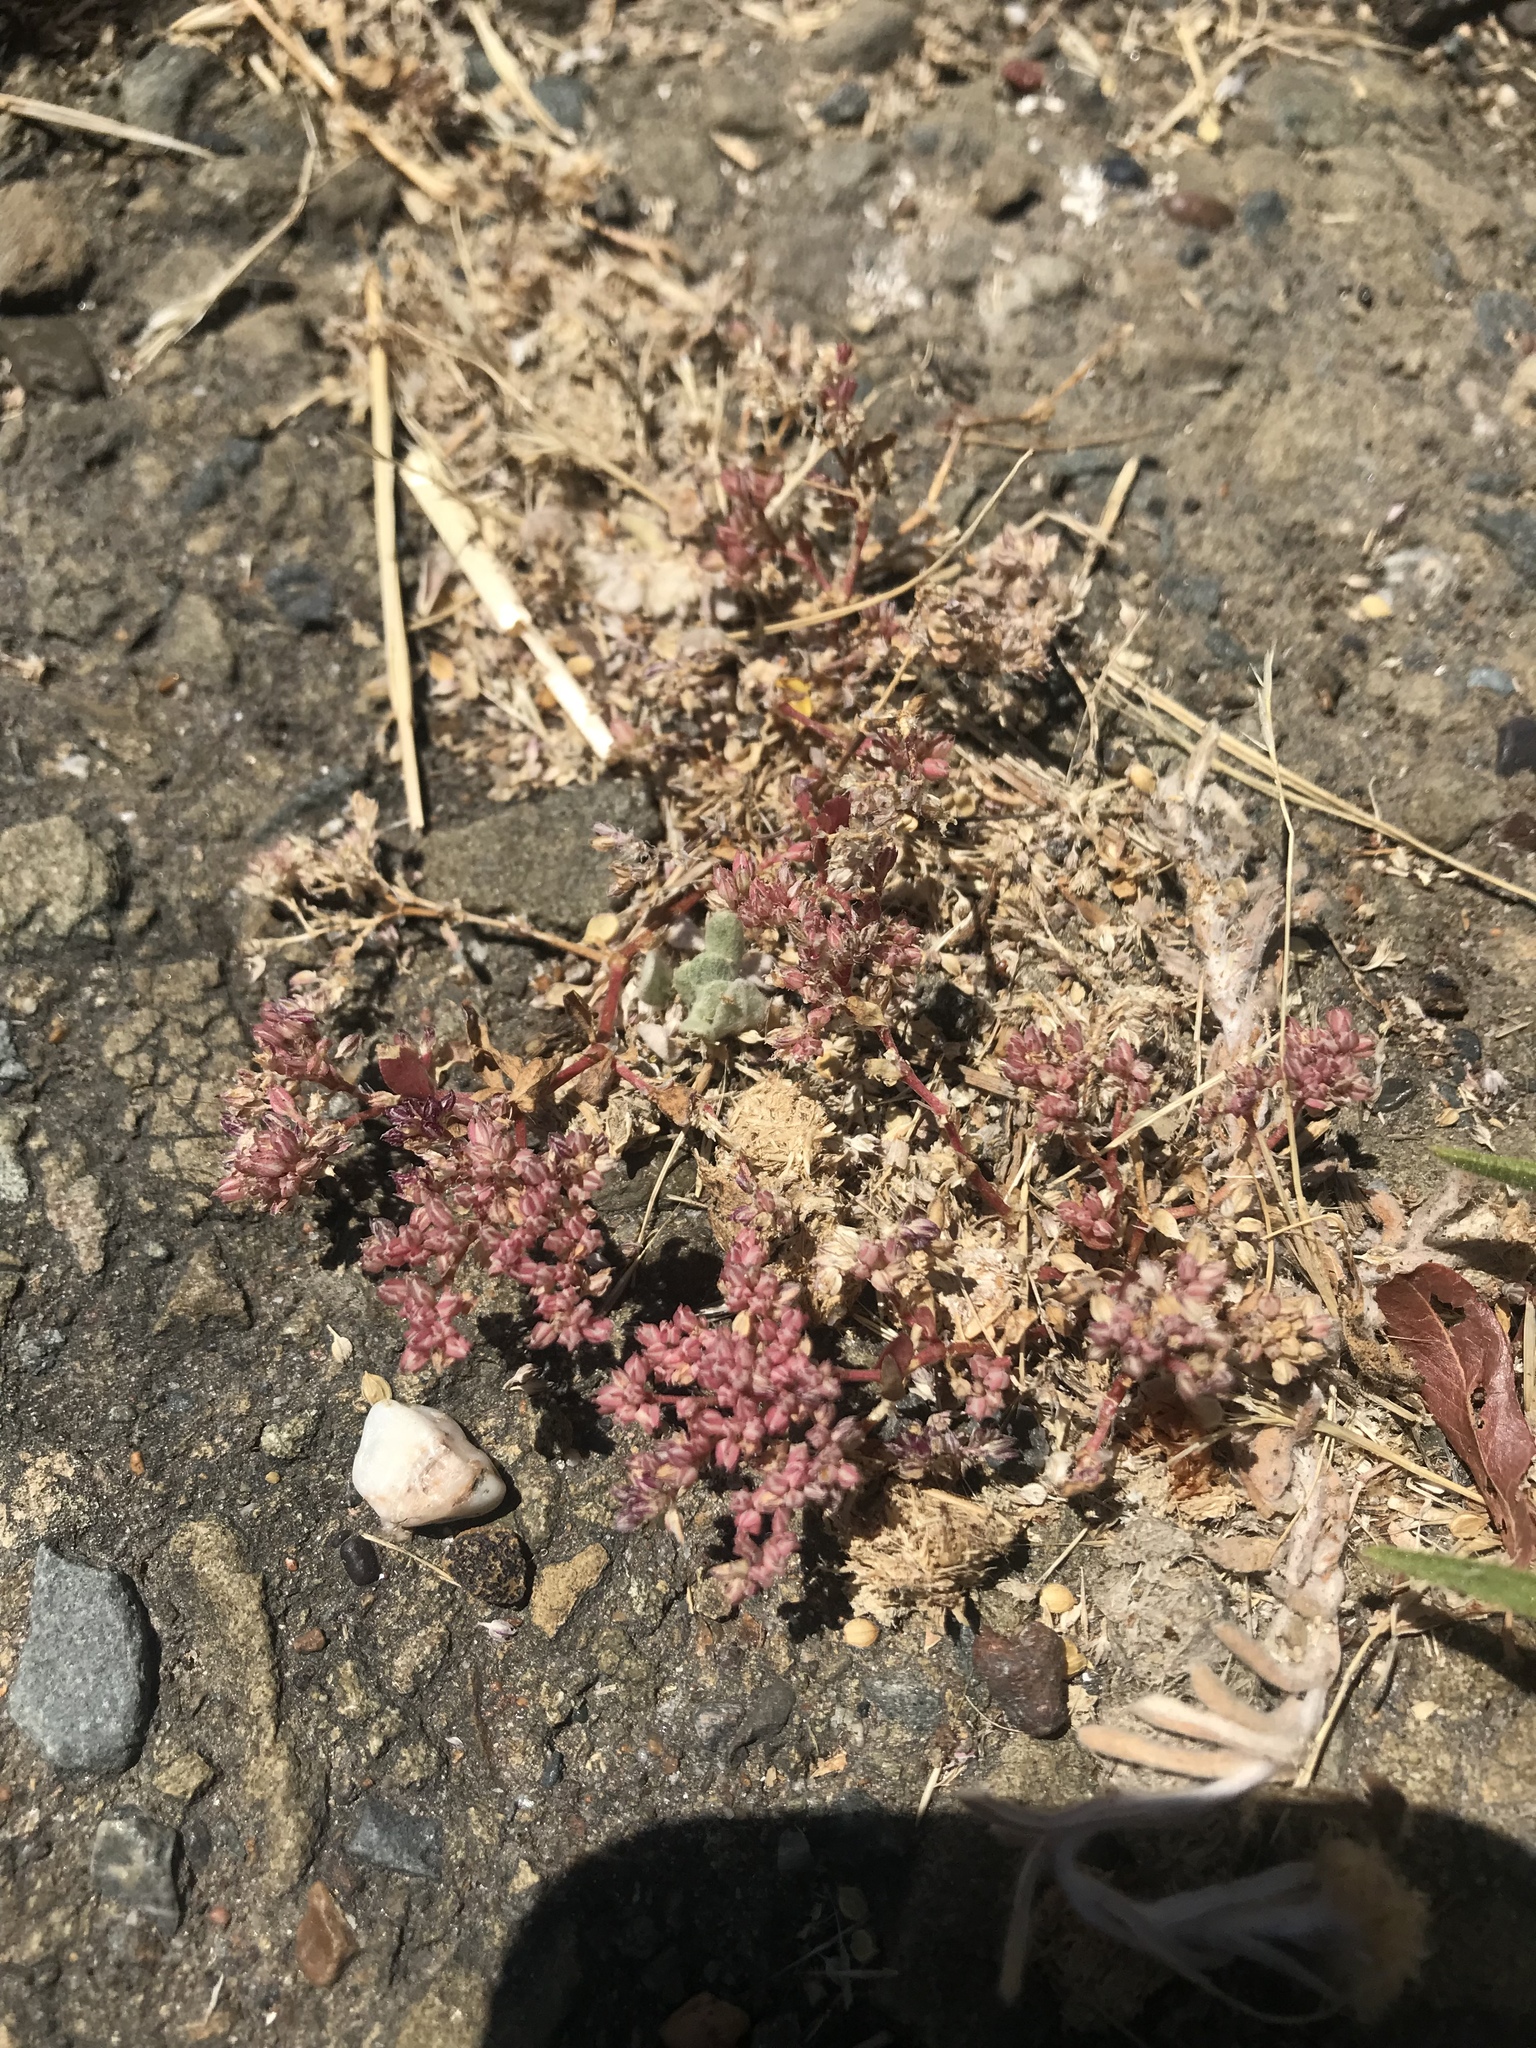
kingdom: Plantae
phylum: Tracheophyta
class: Magnoliopsida
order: Caryophyllales
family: Caryophyllaceae
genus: Polycarpon
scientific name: Polycarpon tetraphyllum
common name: Four-leaved all-seed
